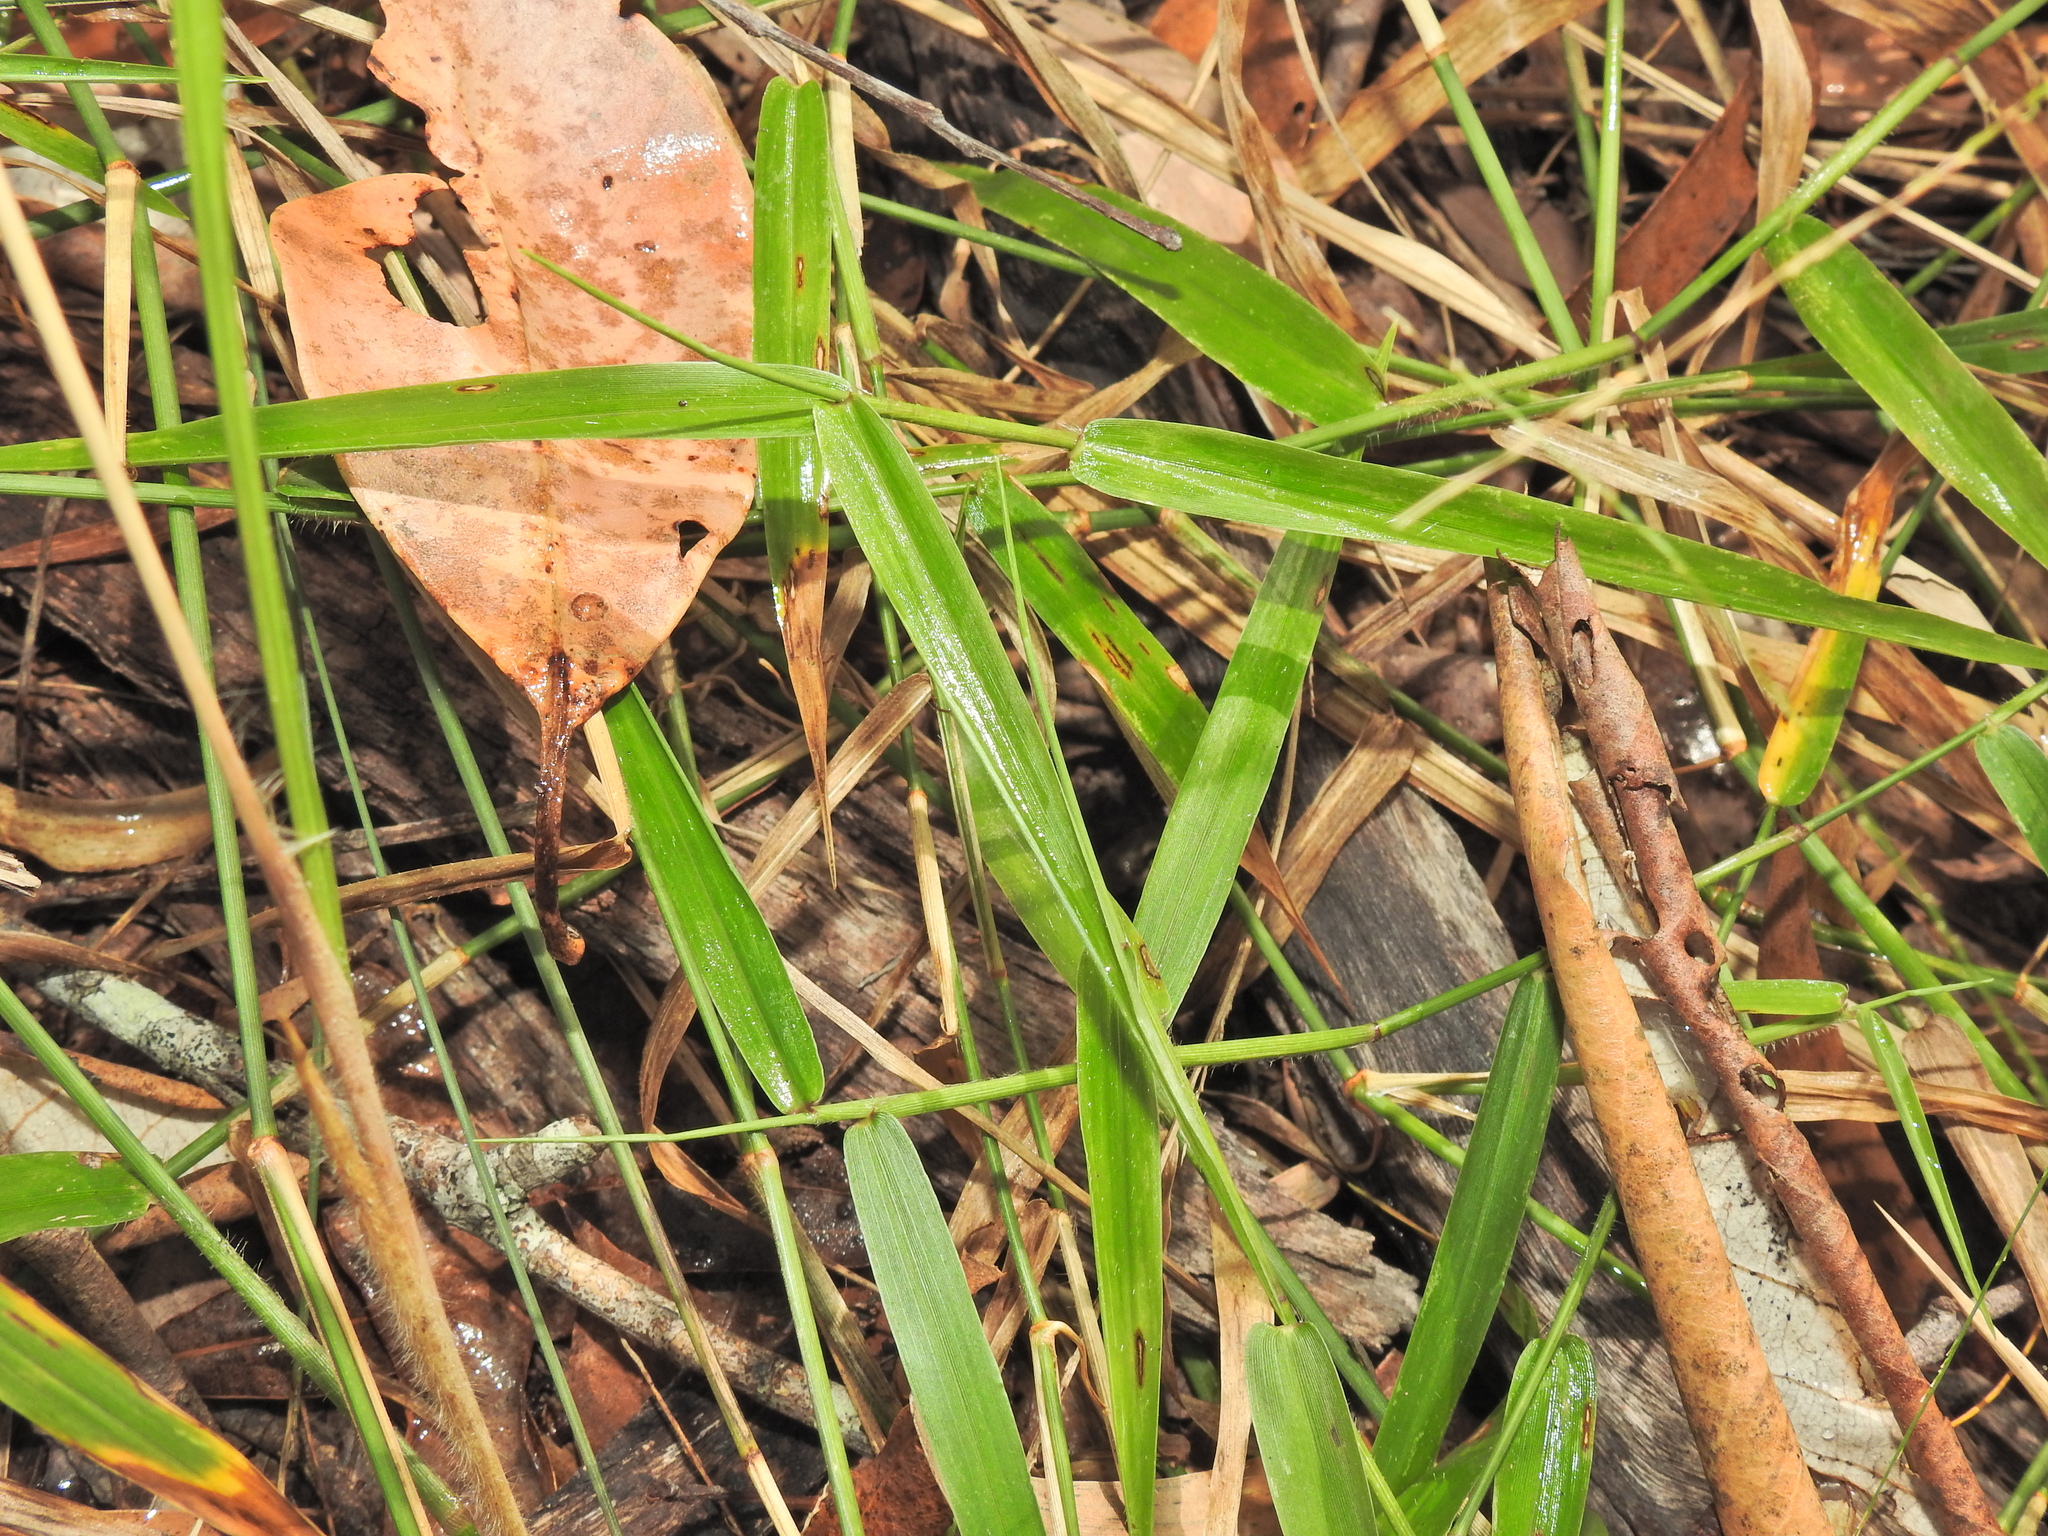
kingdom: Plantae
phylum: Tracheophyta
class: Liliopsida
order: Poales
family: Poaceae
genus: Ottochloa
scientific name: Ottochloa gracillima
